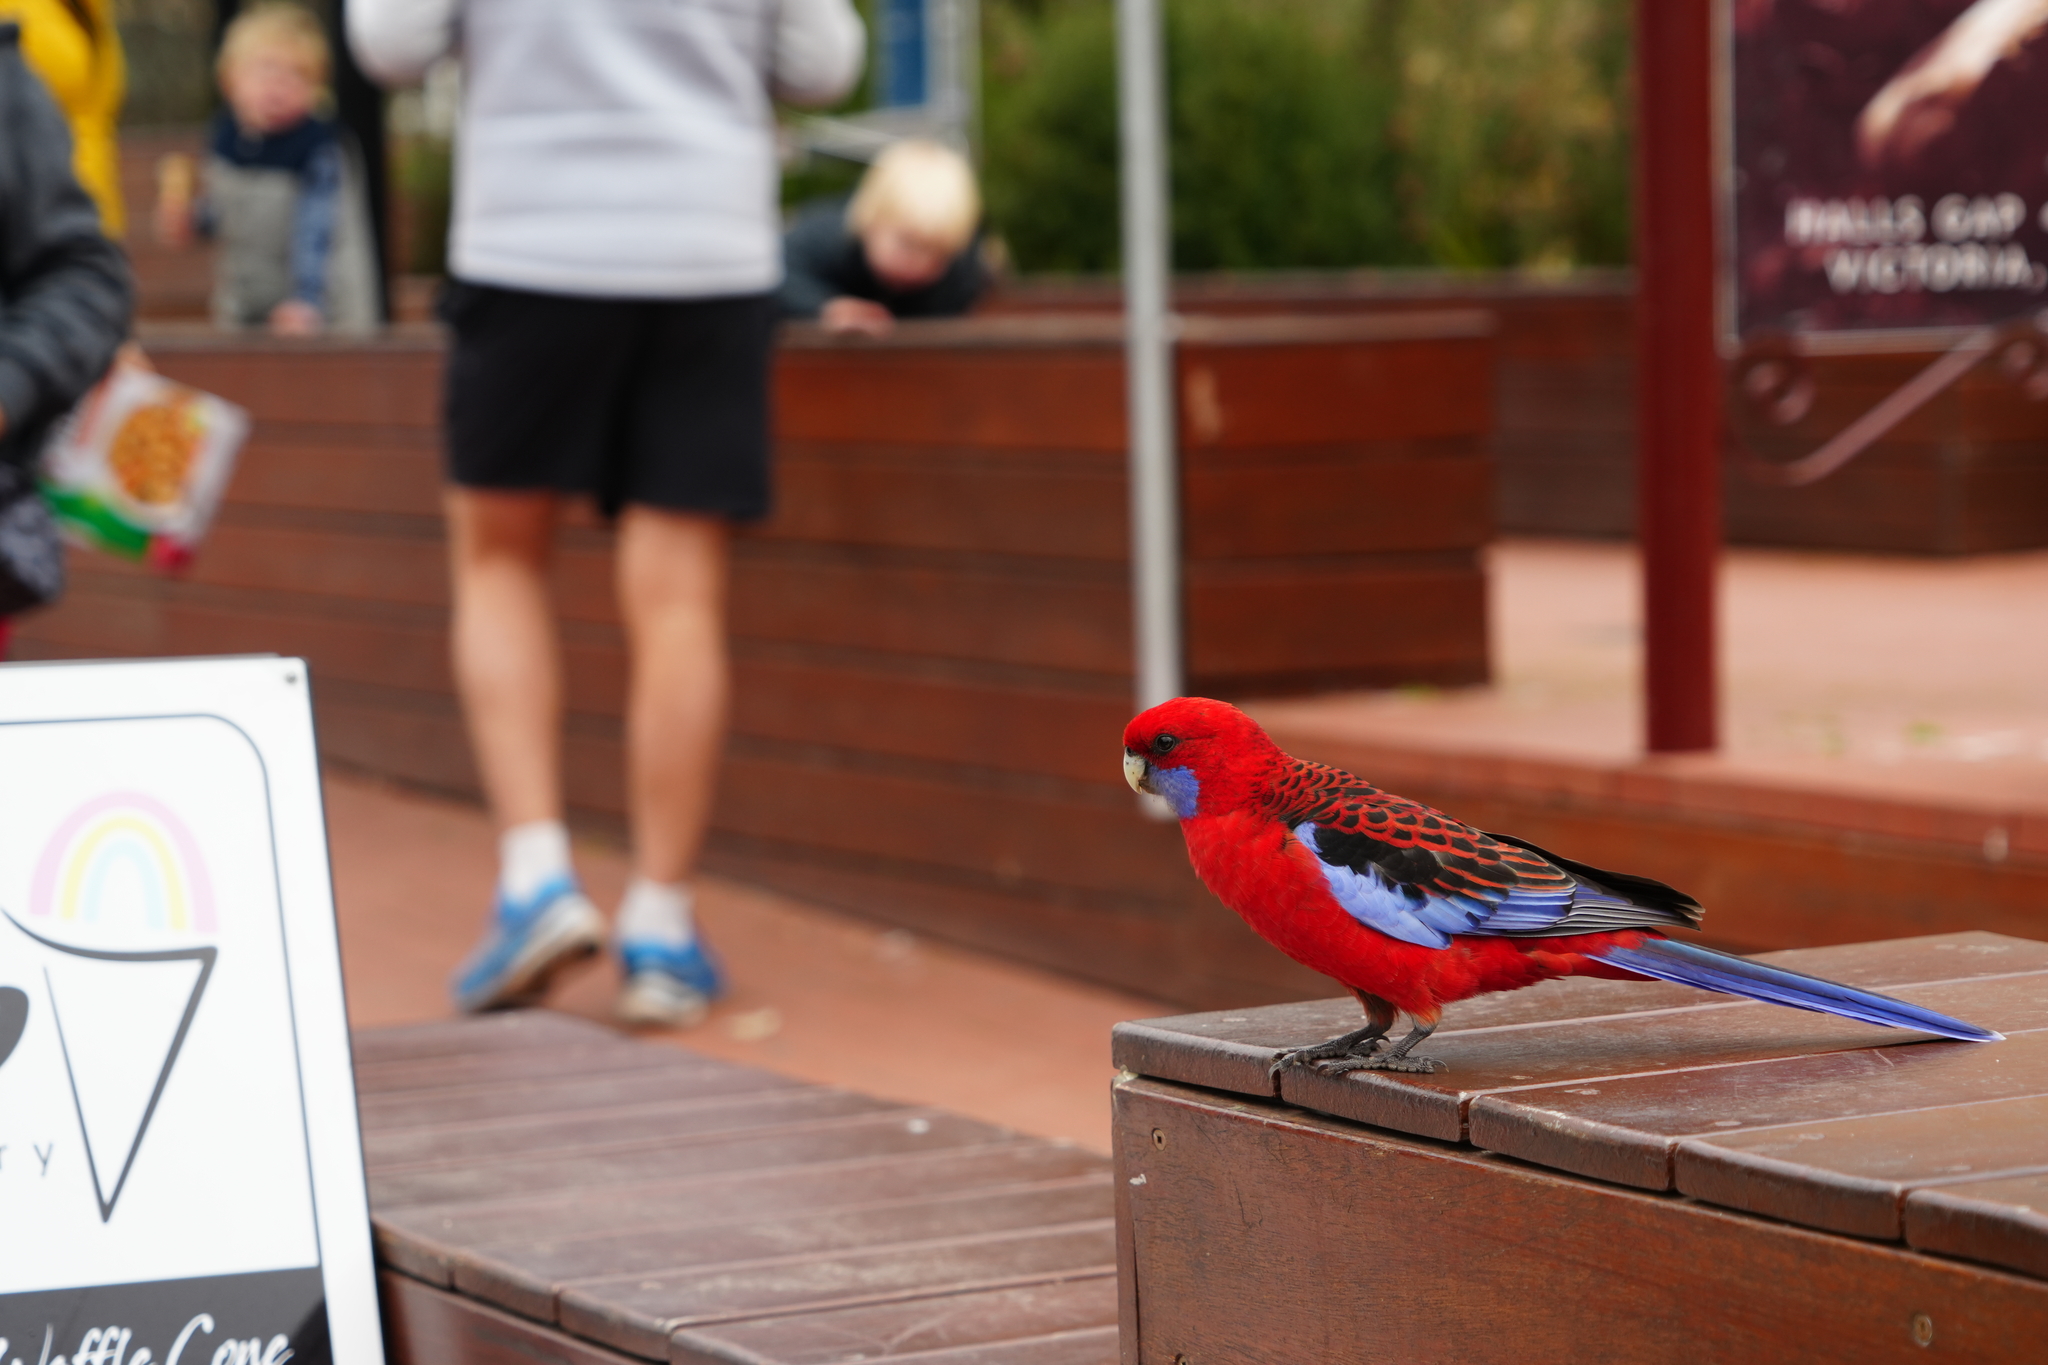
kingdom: Animalia
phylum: Chordata
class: Aves
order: Psittaciformes
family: Psittacidae
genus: Platycercus
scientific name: Platycercus elegans
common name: Crimson rosella
